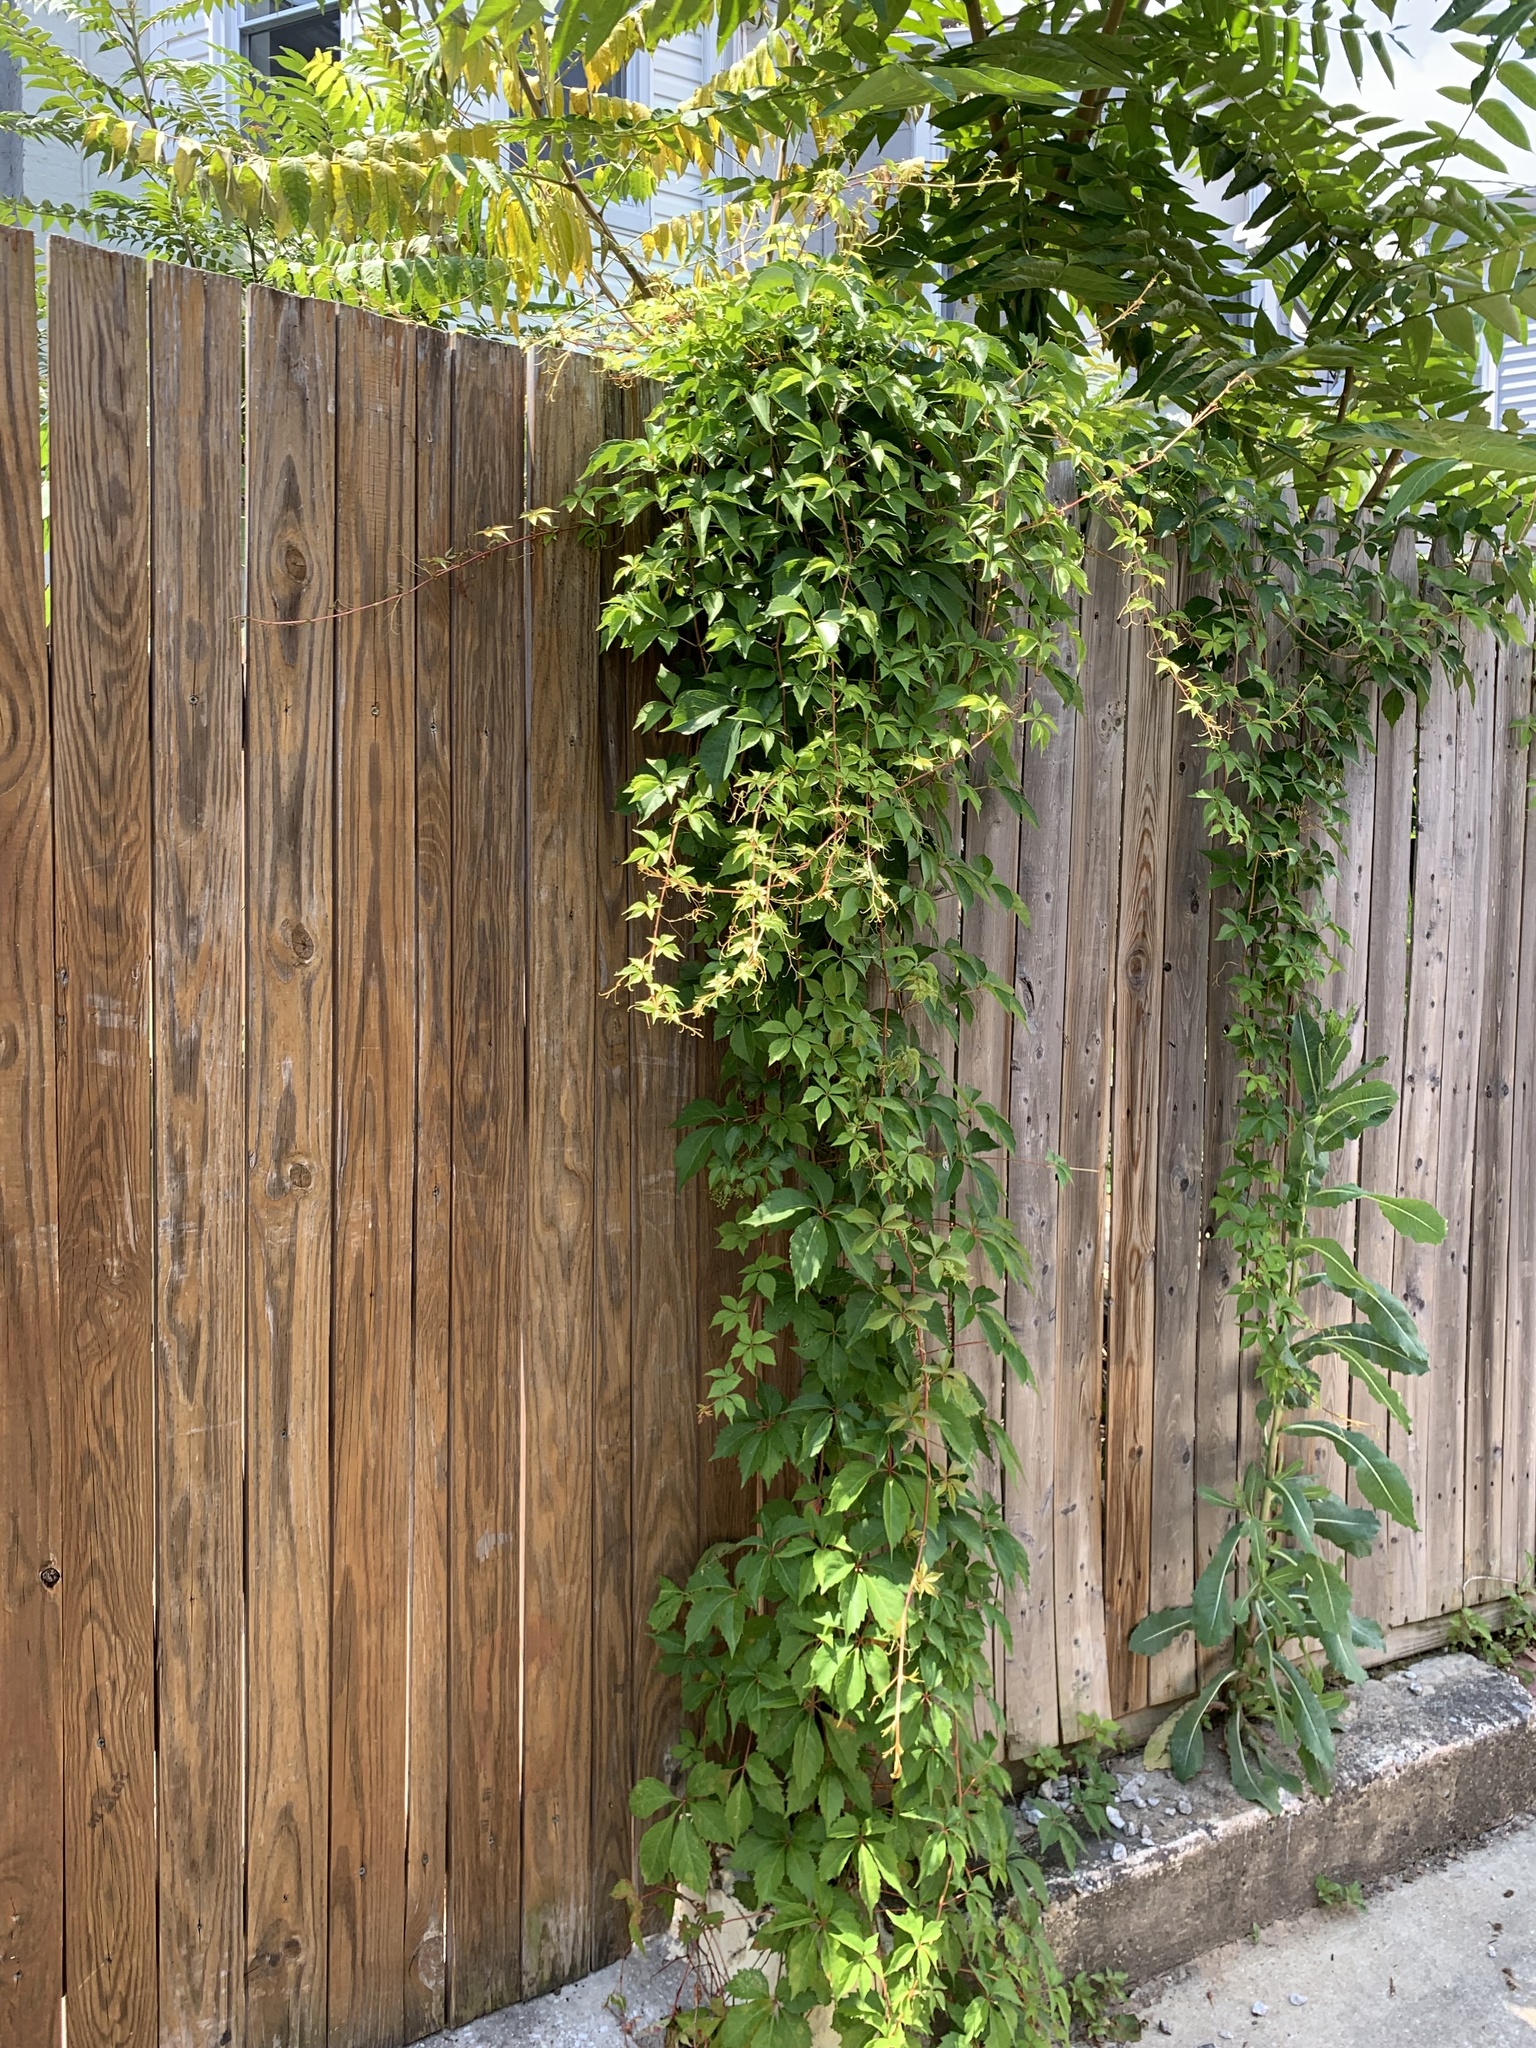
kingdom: Plantae
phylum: Tracheophyta
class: Magnoliopsida
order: Vitales
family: Vitaceae
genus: Parthenocissus
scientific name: Parthenocissus quinquefolia
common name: Virginia-creeper
